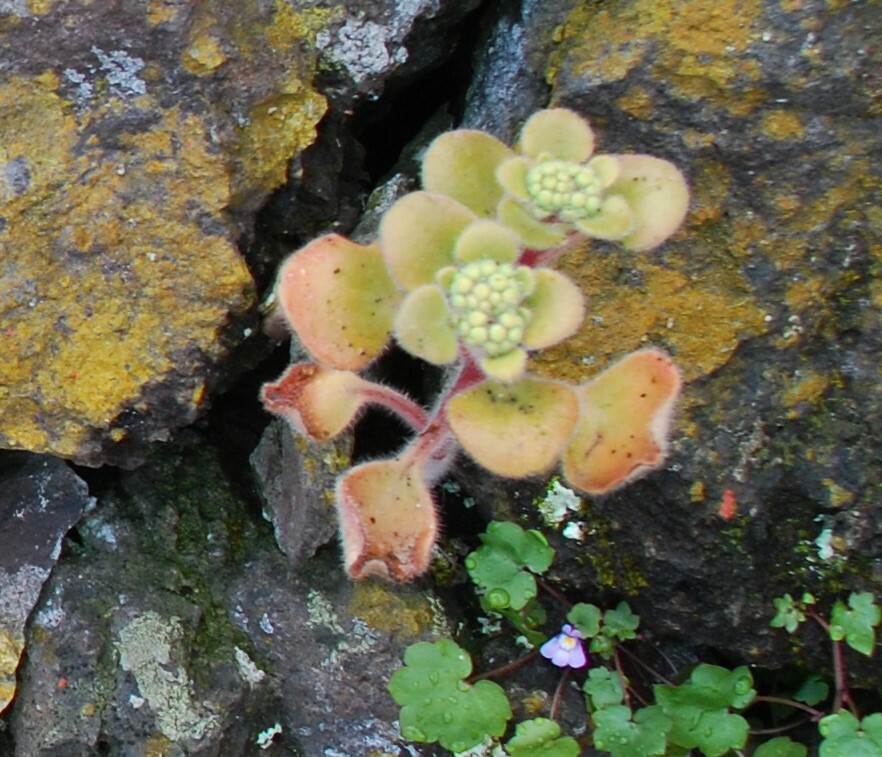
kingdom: Plantae
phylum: Tracheophyta
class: Magnoliopsida
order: Saxifragales
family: Crassulaceae
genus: Aichryson
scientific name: Aichryson laxum
